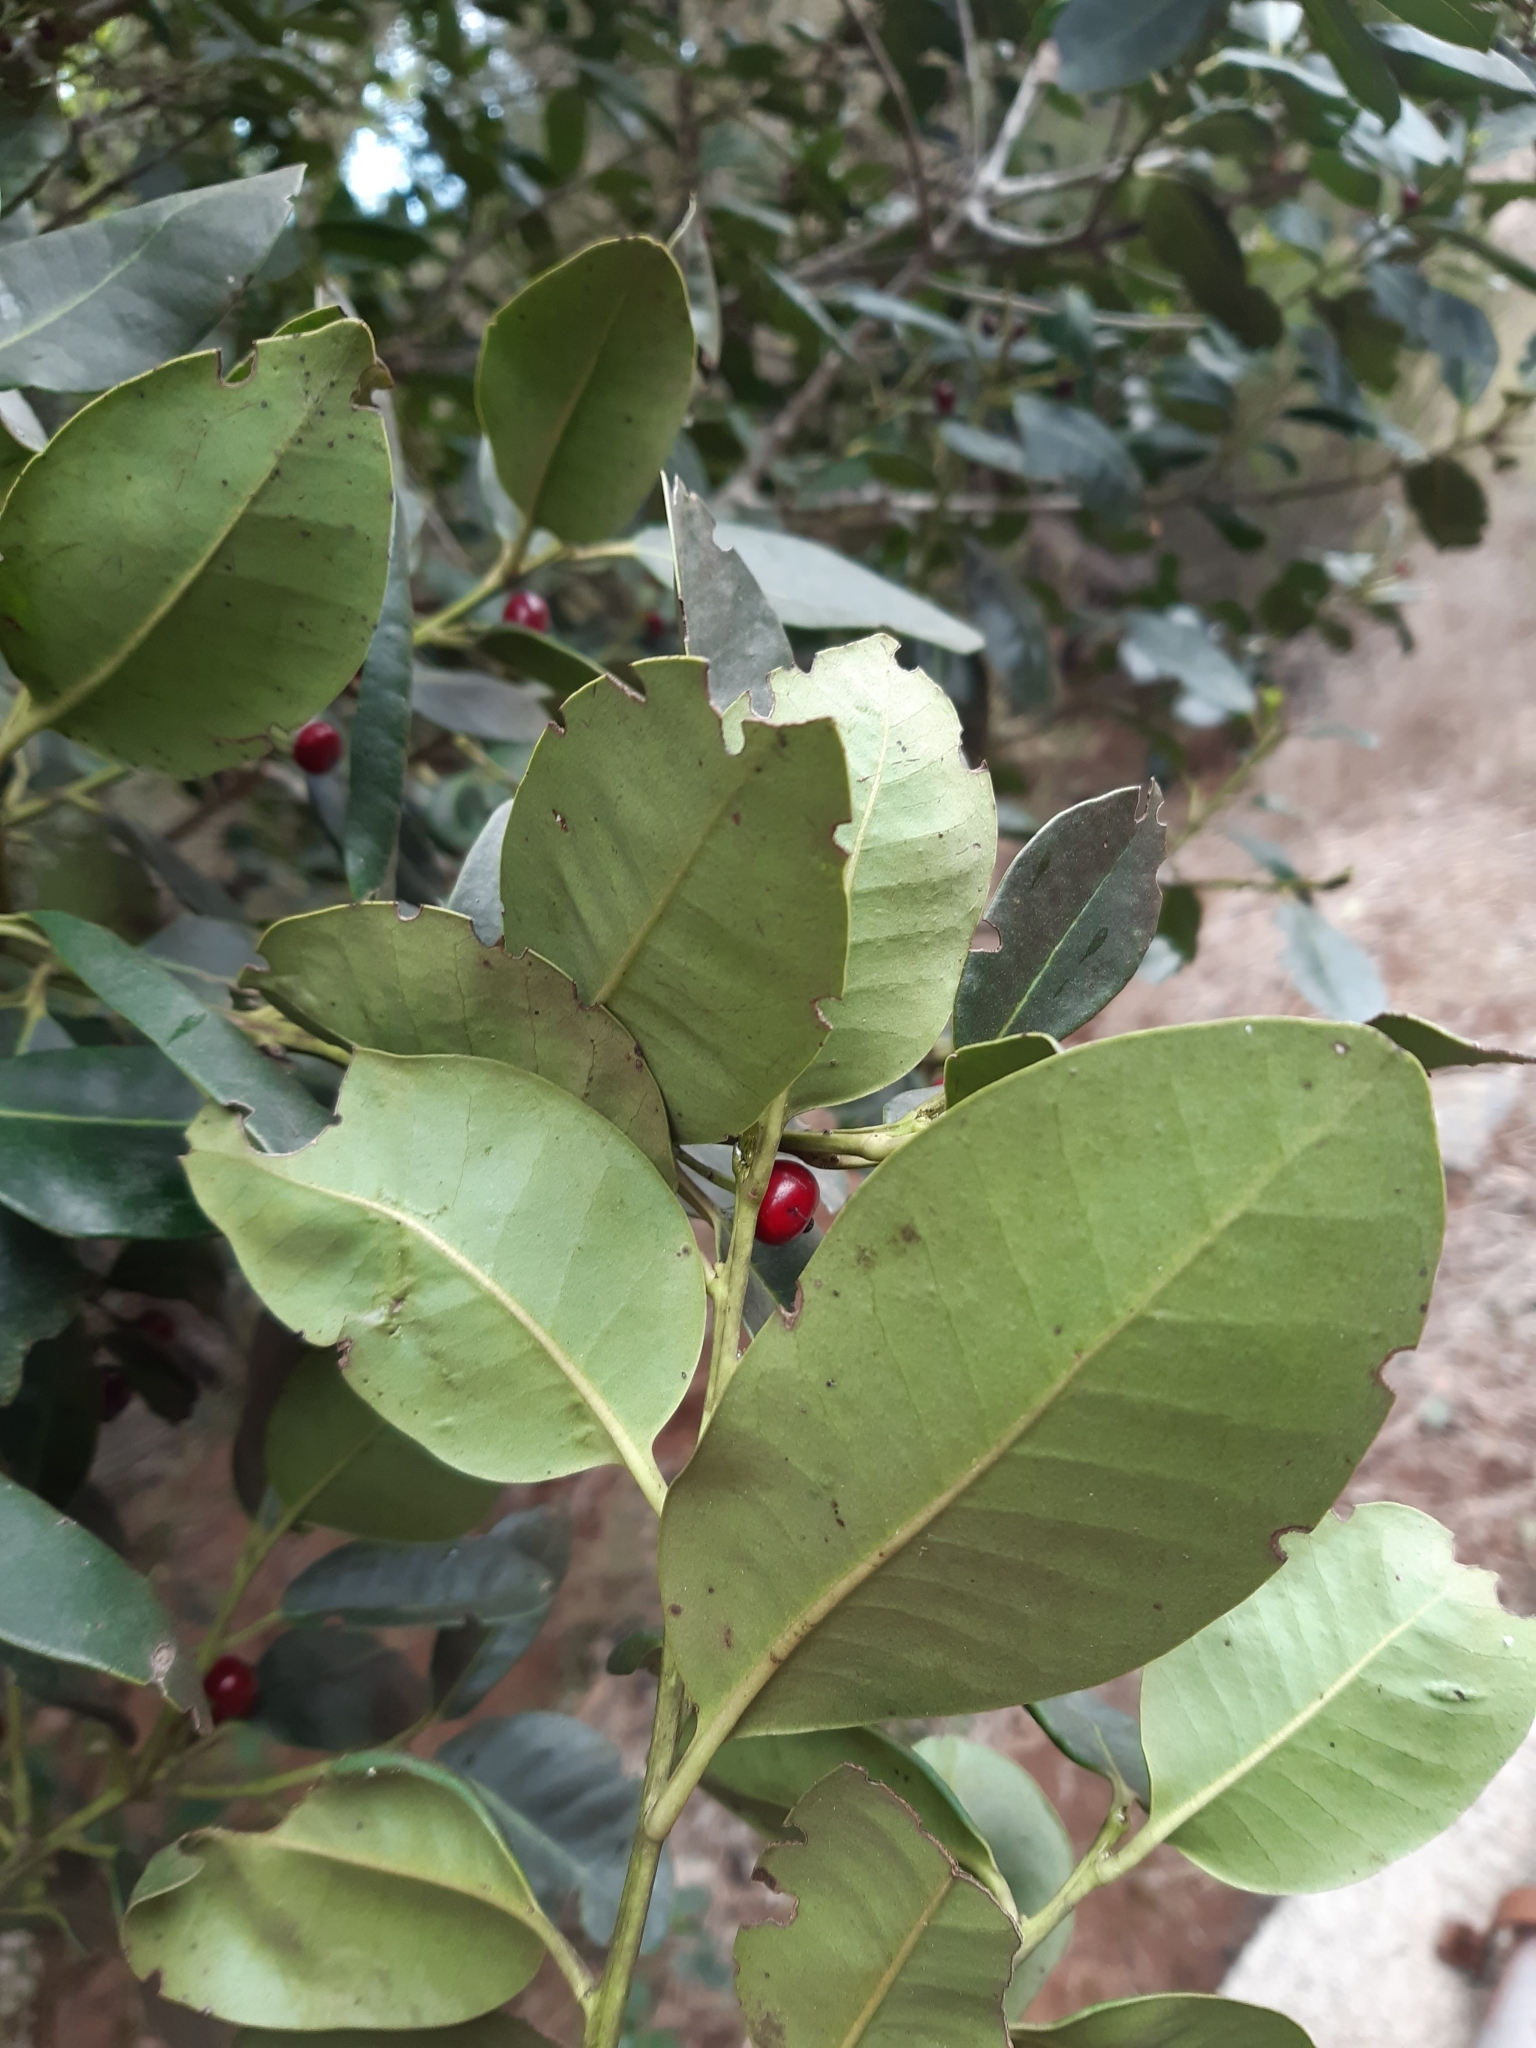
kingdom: Plantae
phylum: Tracheophyta
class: Magnoliopsida
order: Aquifoliales
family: Aquifoliaceae
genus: Ilex
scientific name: Ilex canariensis
